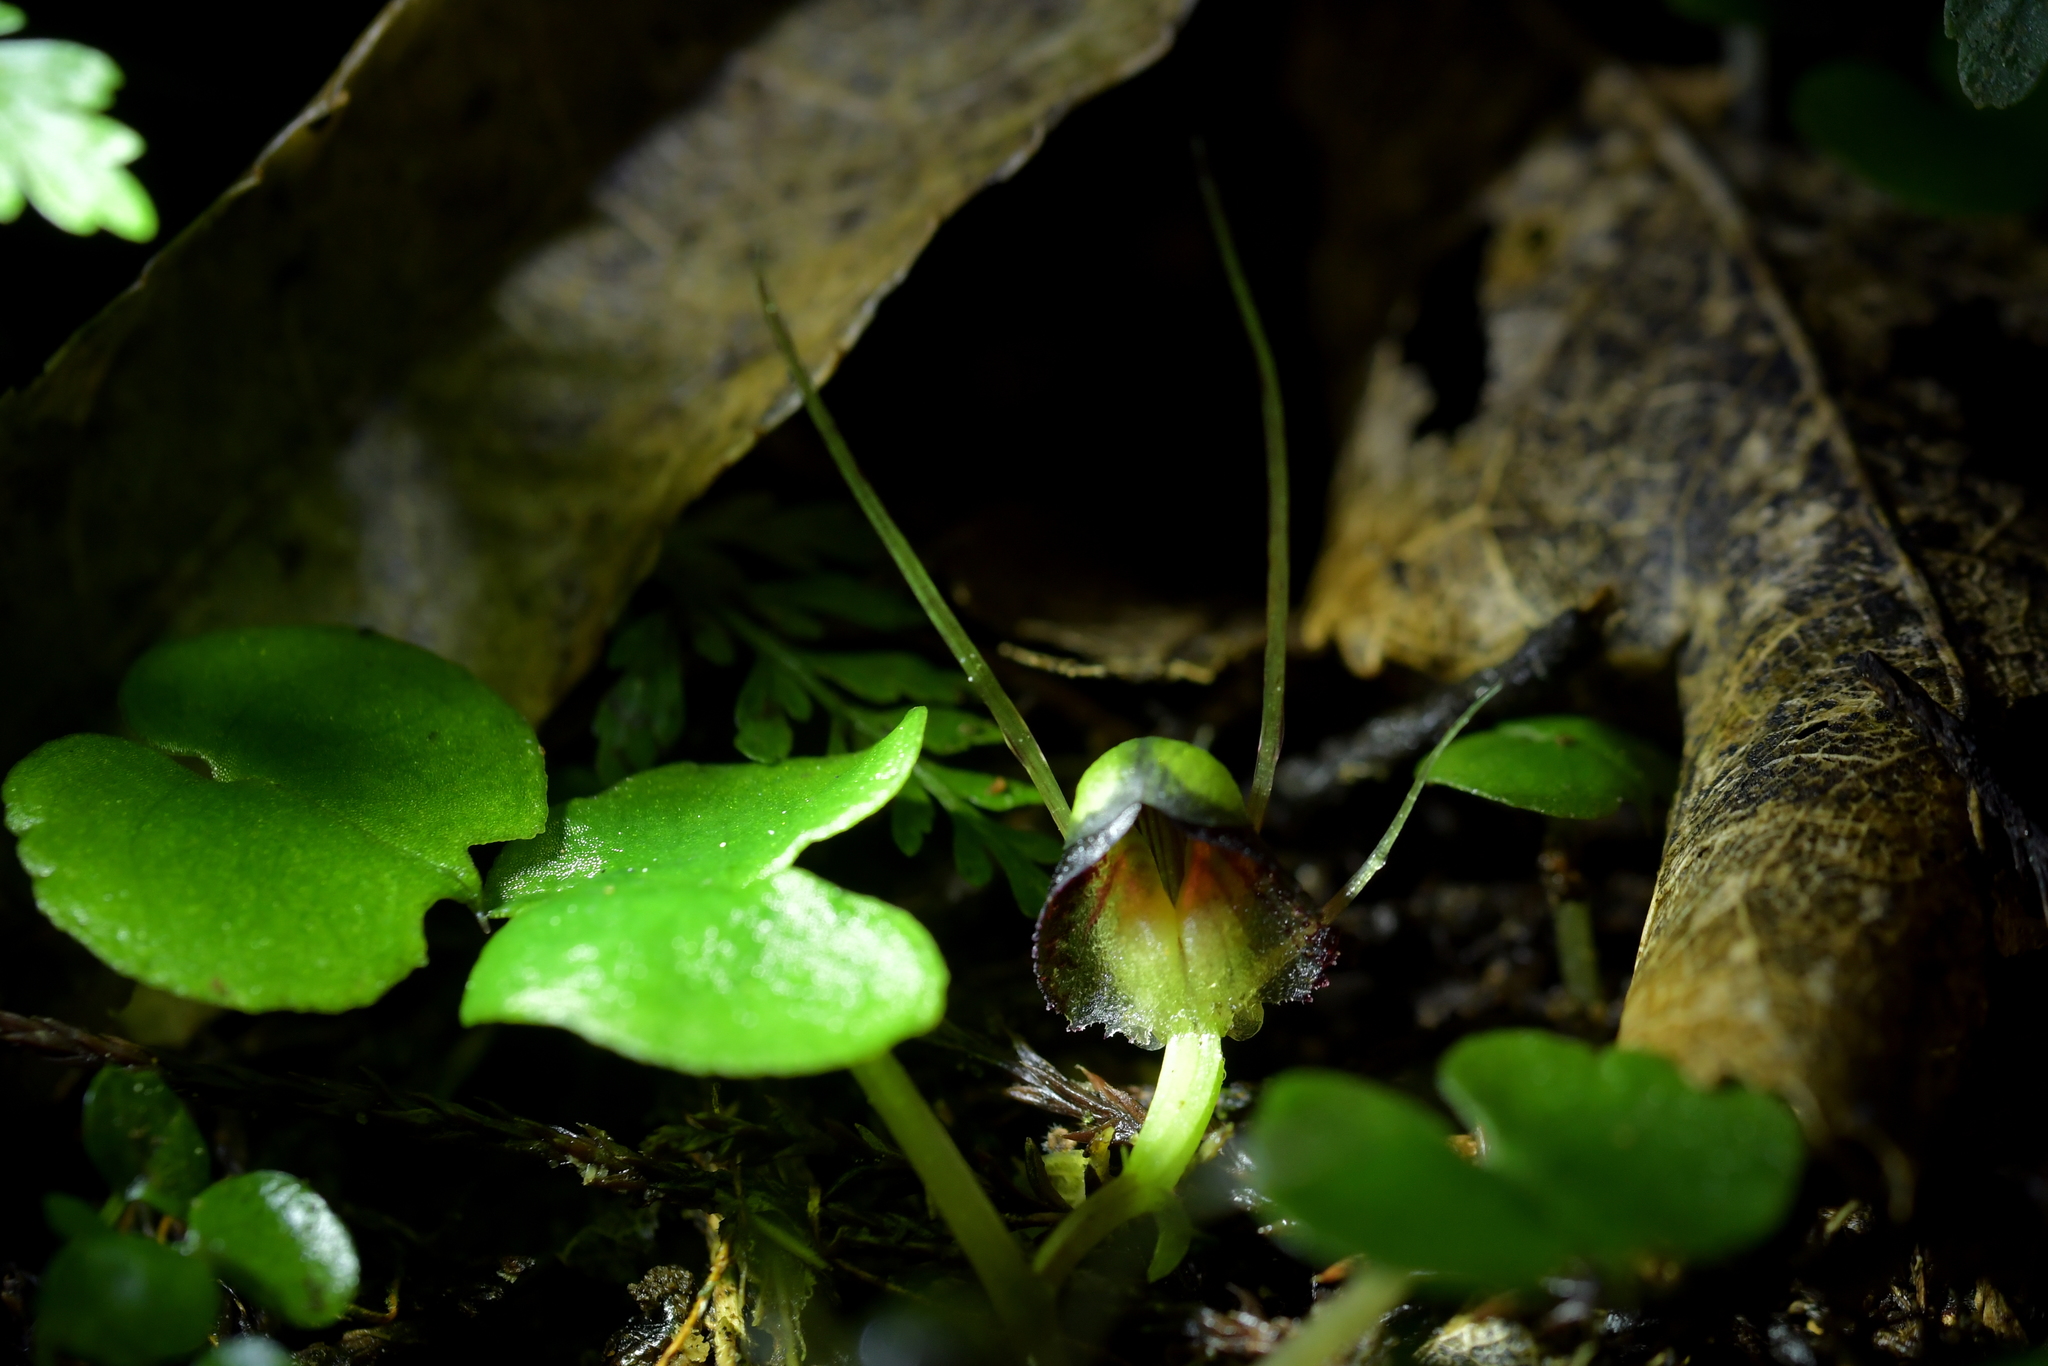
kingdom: Plantae
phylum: Tracheophyta
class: Liliopsida
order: Asparagales
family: Orchidaceae
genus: Corybas
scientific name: Corybas vitreus
